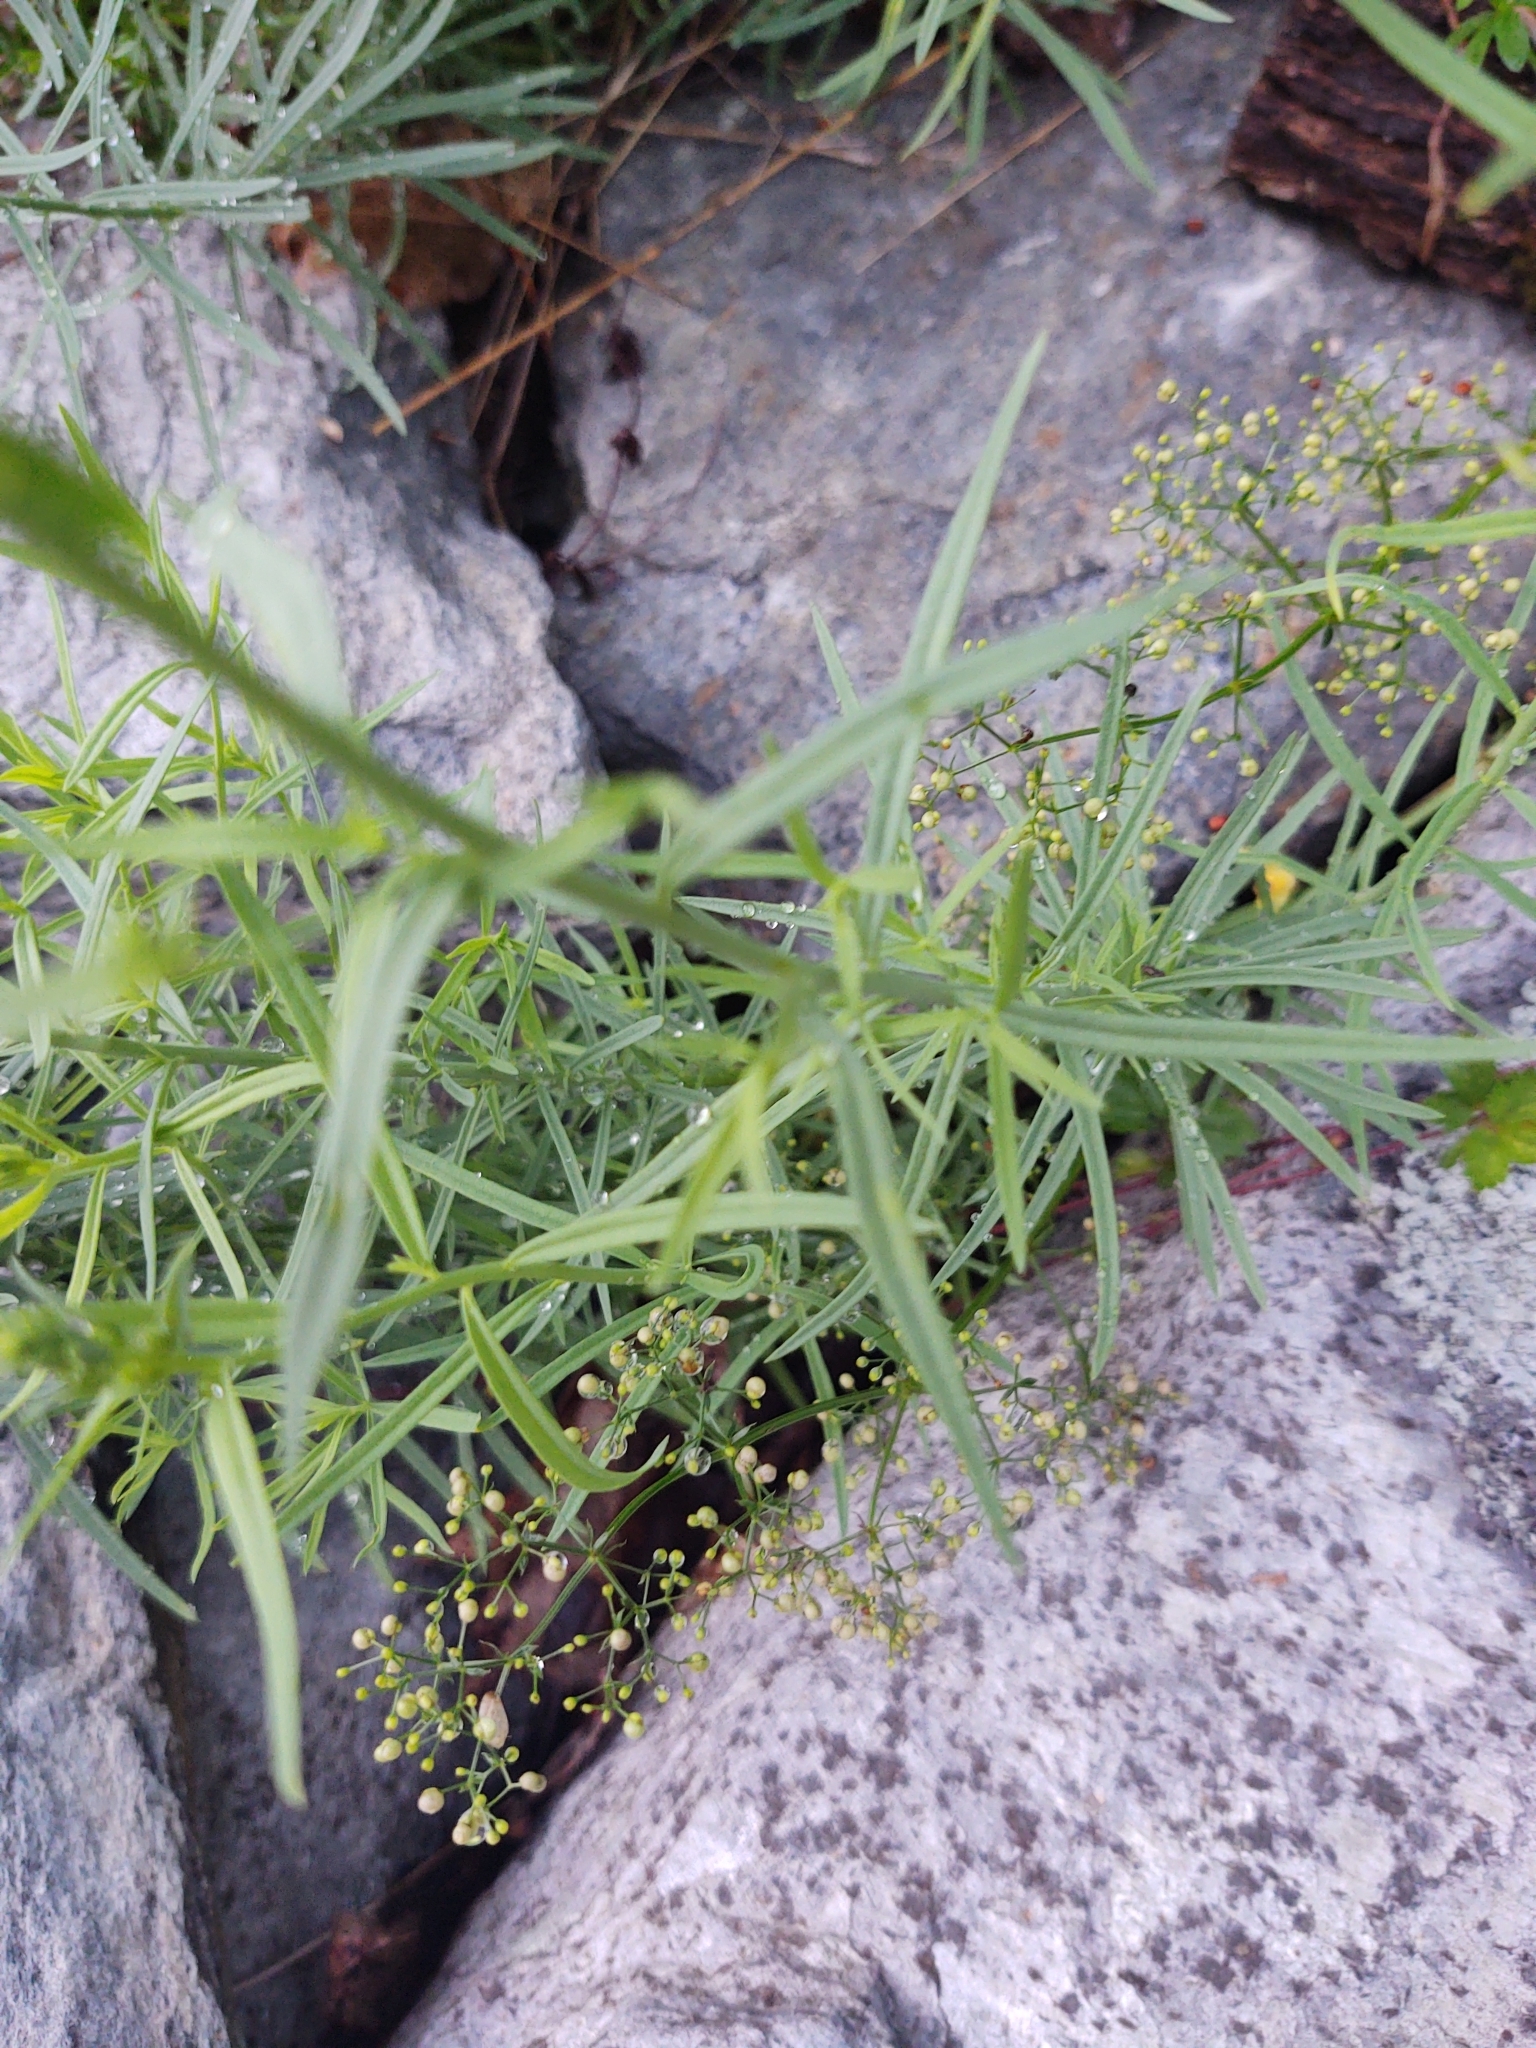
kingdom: Plantae
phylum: Tracheophyta
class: Magnoliopsida
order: Lamiales
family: Plantaginaceae
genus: Linaria
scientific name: Linaria vulgaris
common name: Butter and eggs
